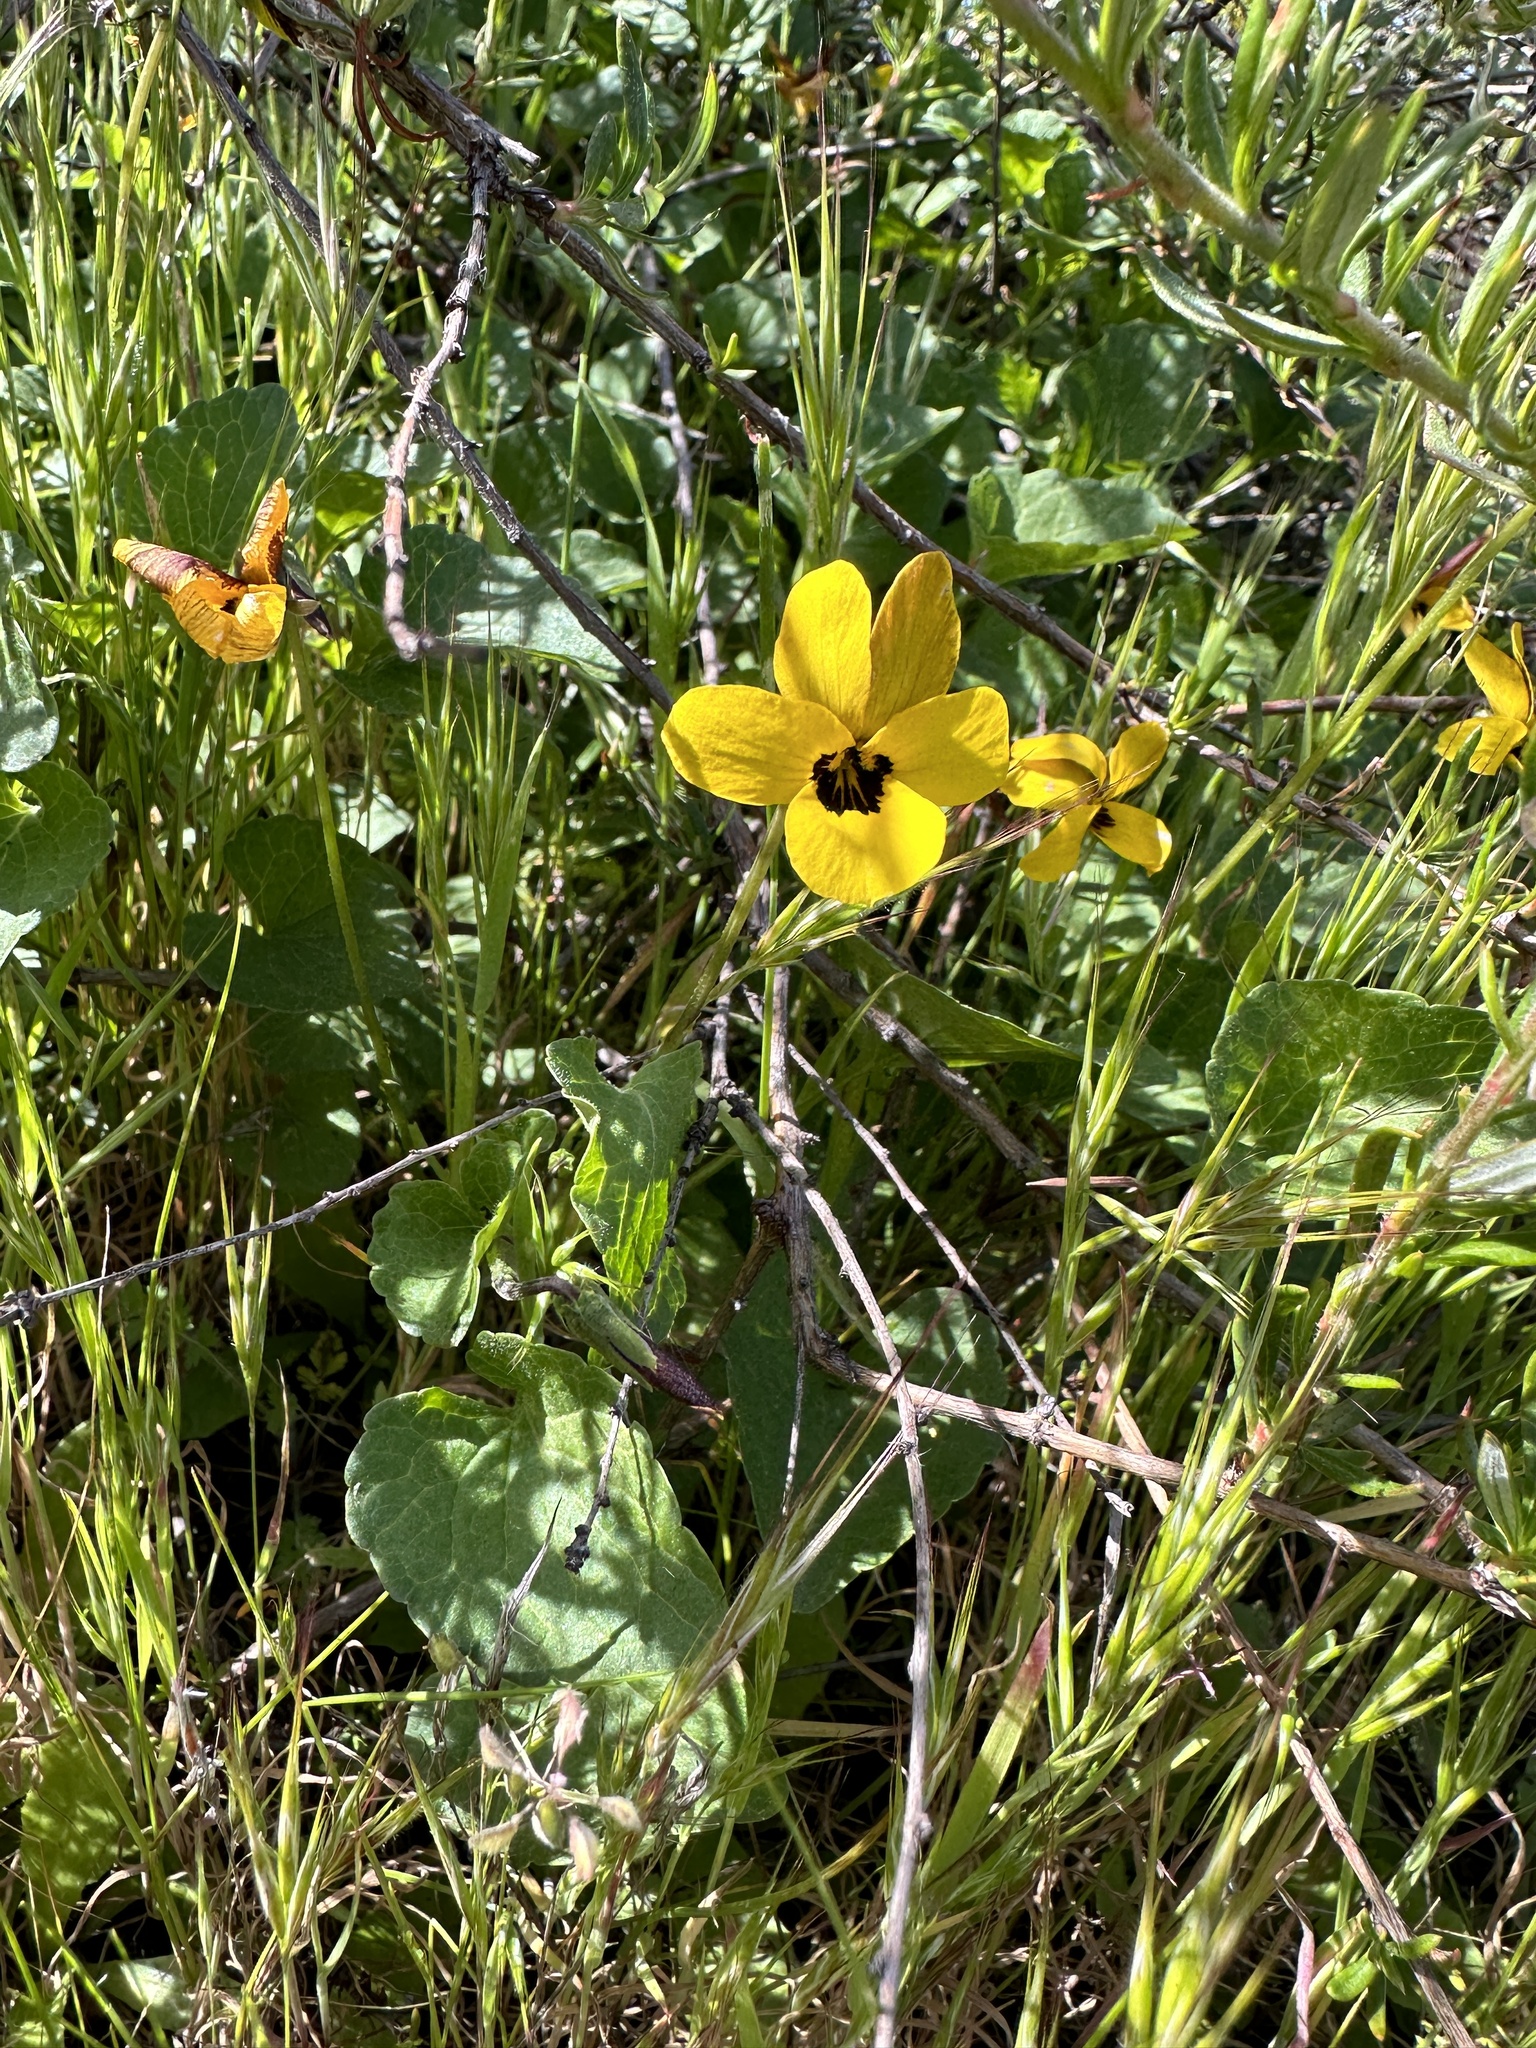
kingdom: Plantae
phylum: Tracheophyta
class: Magnoliopsida
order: Malpighiales
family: Violaceae
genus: Viola
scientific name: Viola pedunculata
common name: California golden violet
